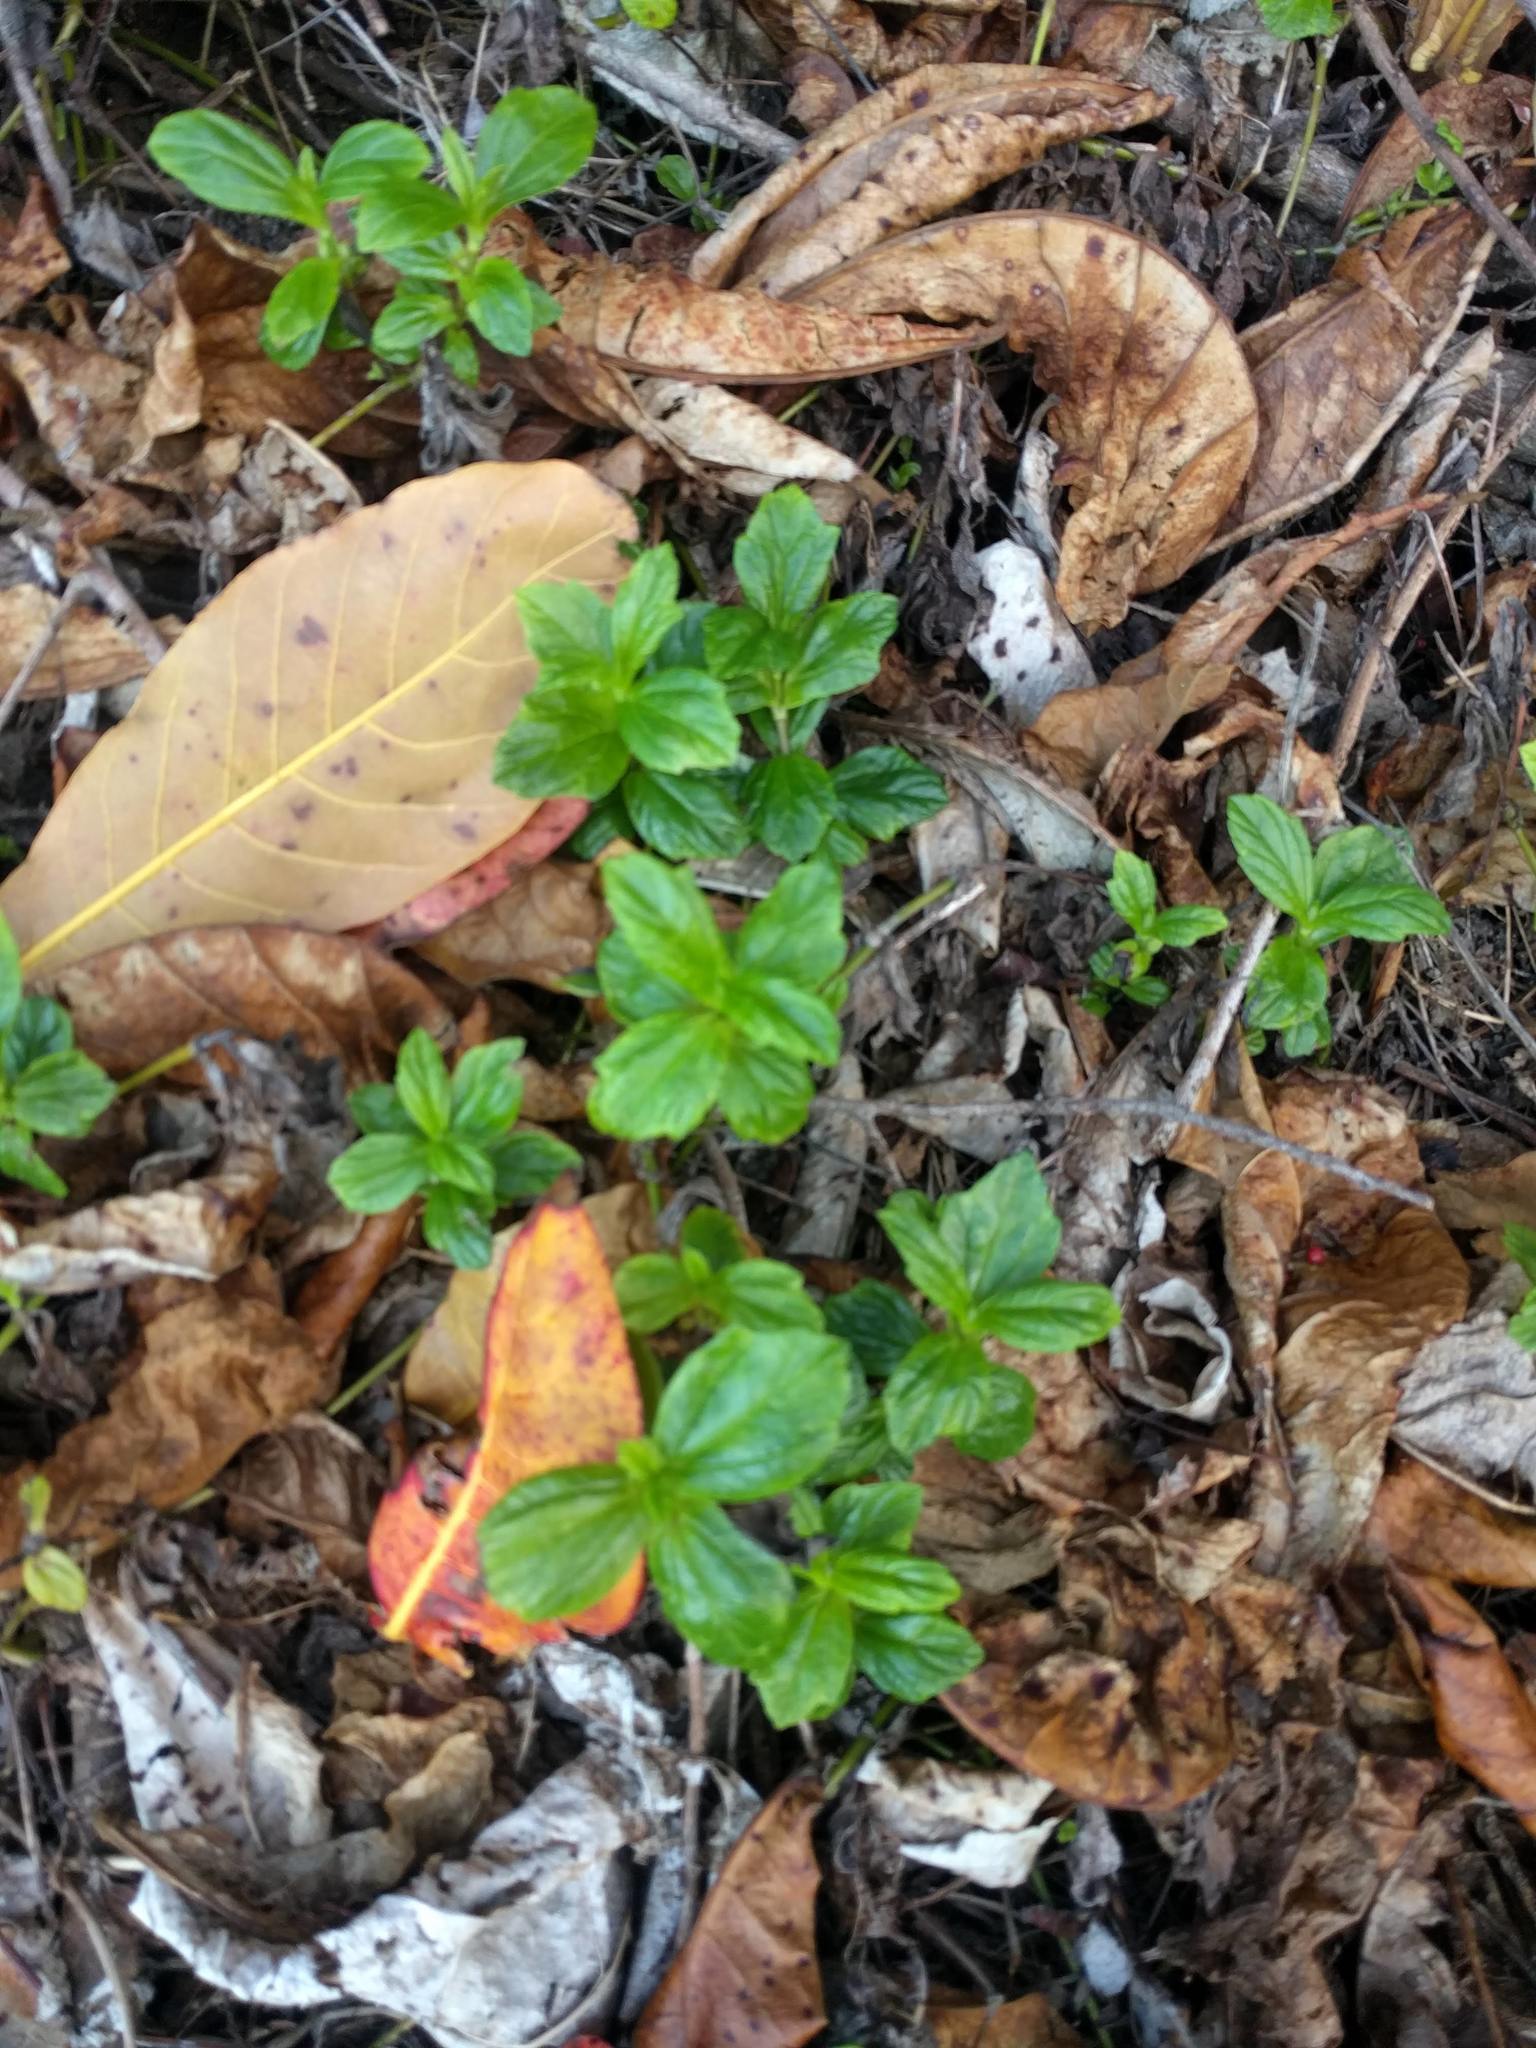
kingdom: Plantae
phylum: Tracheophyta
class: Magnoliopsida
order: Asterales
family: Asteraceae
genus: Sphagneticola
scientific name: Sphagneticola trilobata
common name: Bay biscayne creeping-oxeye
